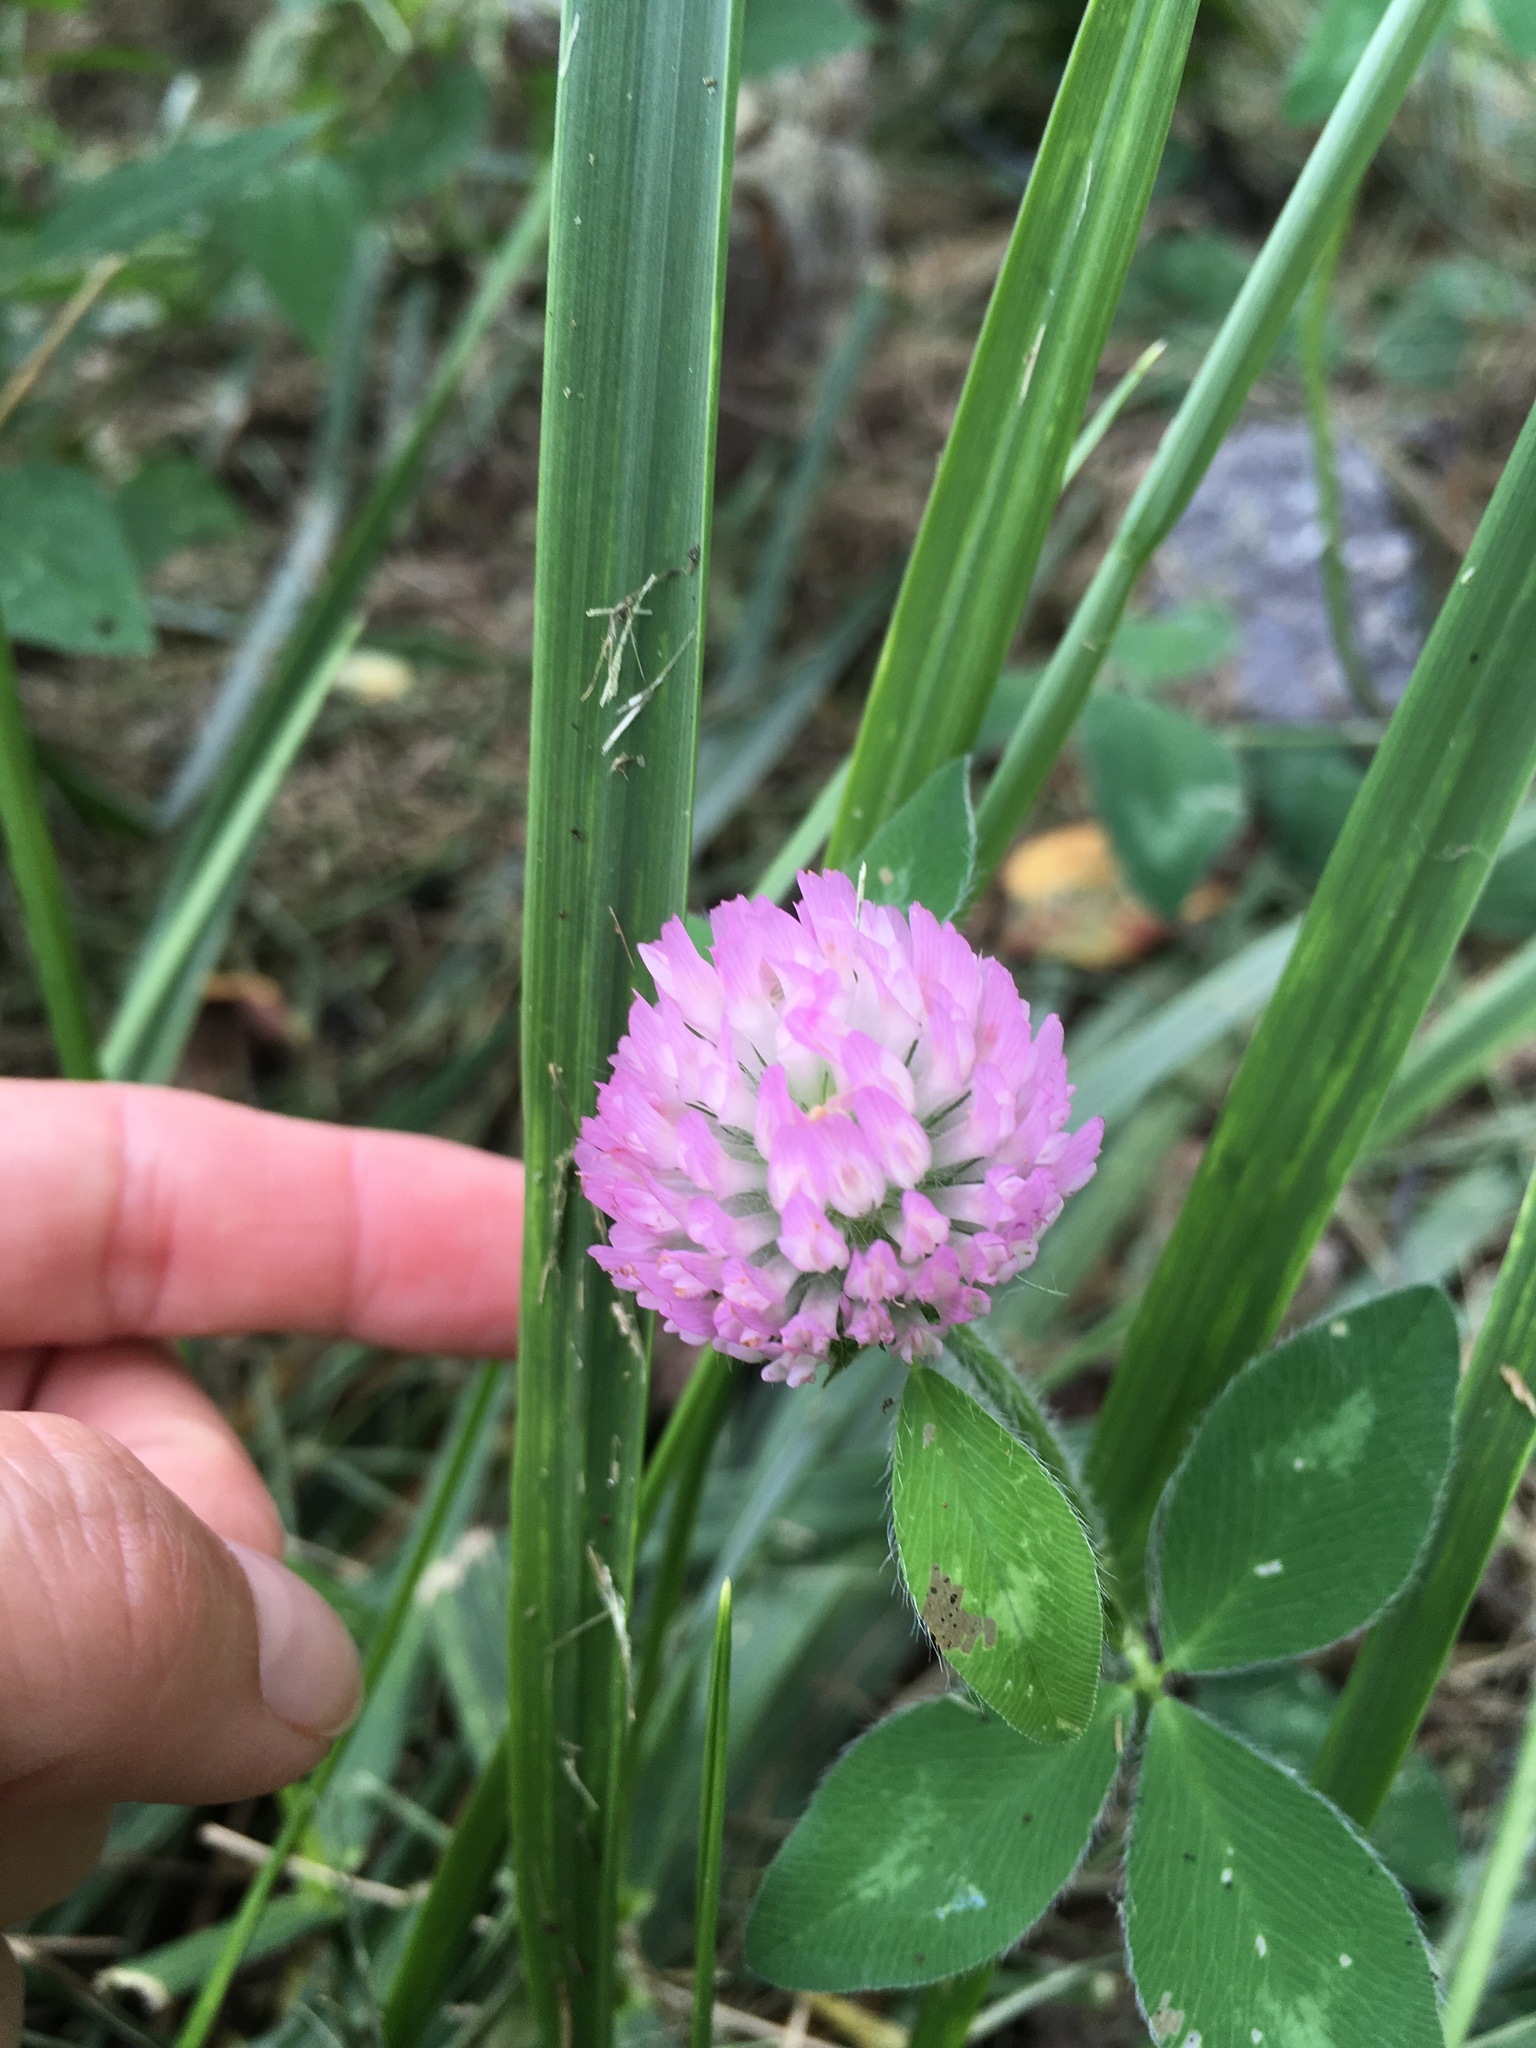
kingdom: Plantae
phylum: Tracheophyta
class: Magnoliopsida
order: Fabales
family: Fabaceae
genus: Trifolium
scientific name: Trifolium pratense
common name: Red clover
